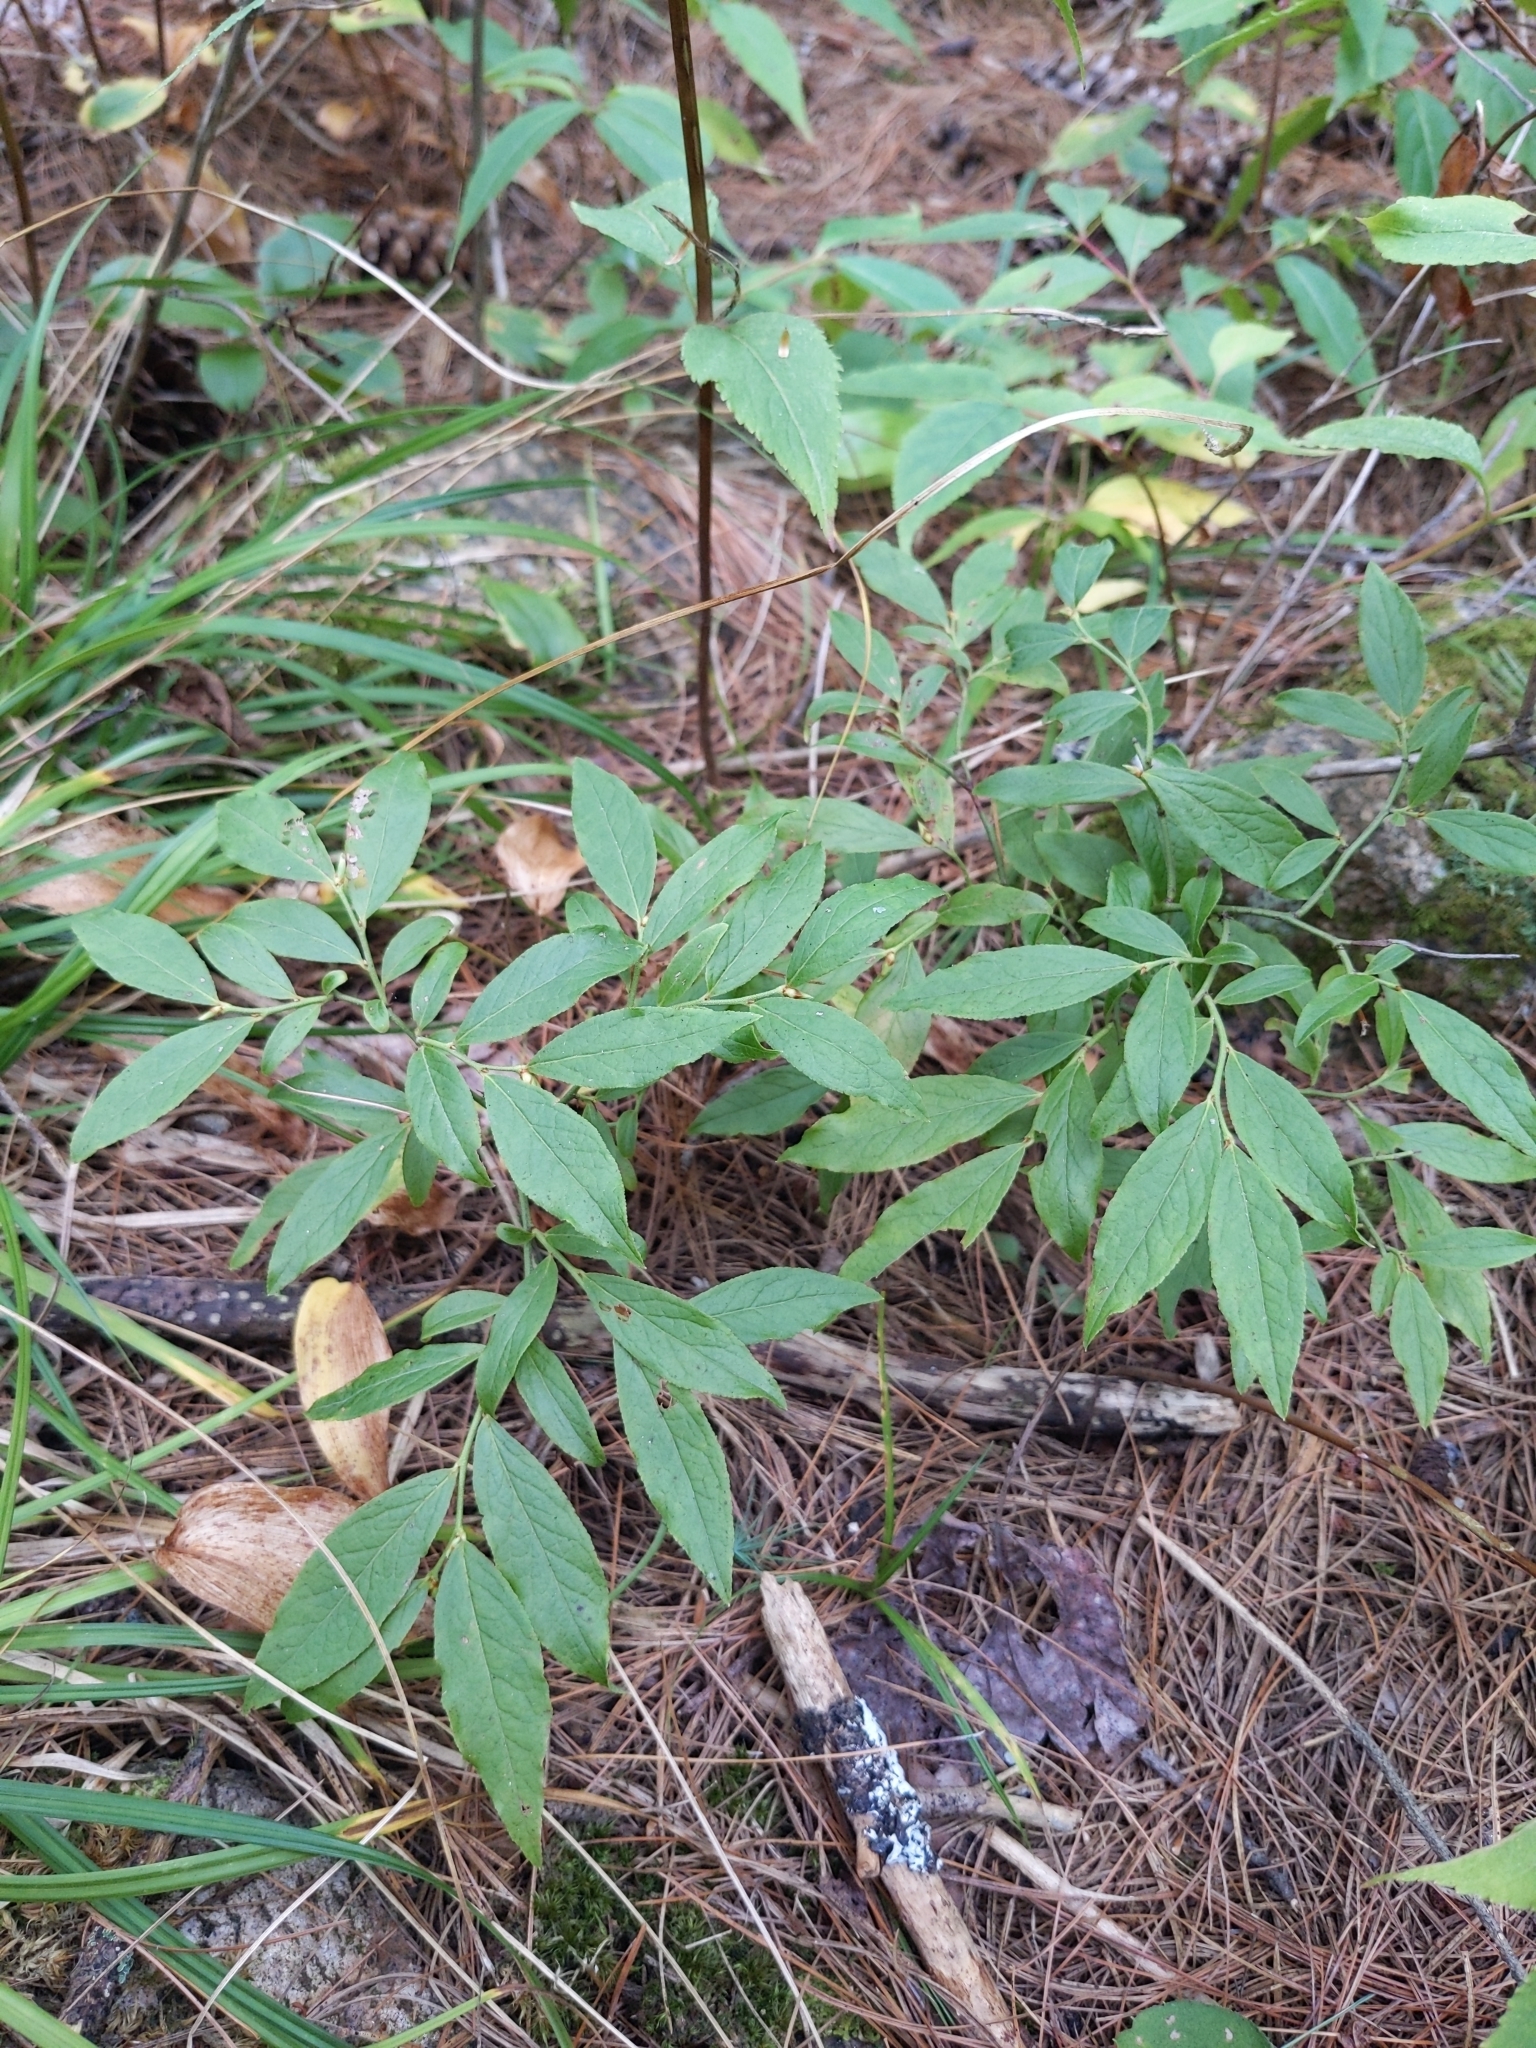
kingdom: Plantae
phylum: Tracheophyta
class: Magnoliopsida
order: Ericales
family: Ericaceae
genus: Vaccinium
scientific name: Vaccinium angustifolium
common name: Early lowbush blueberry
